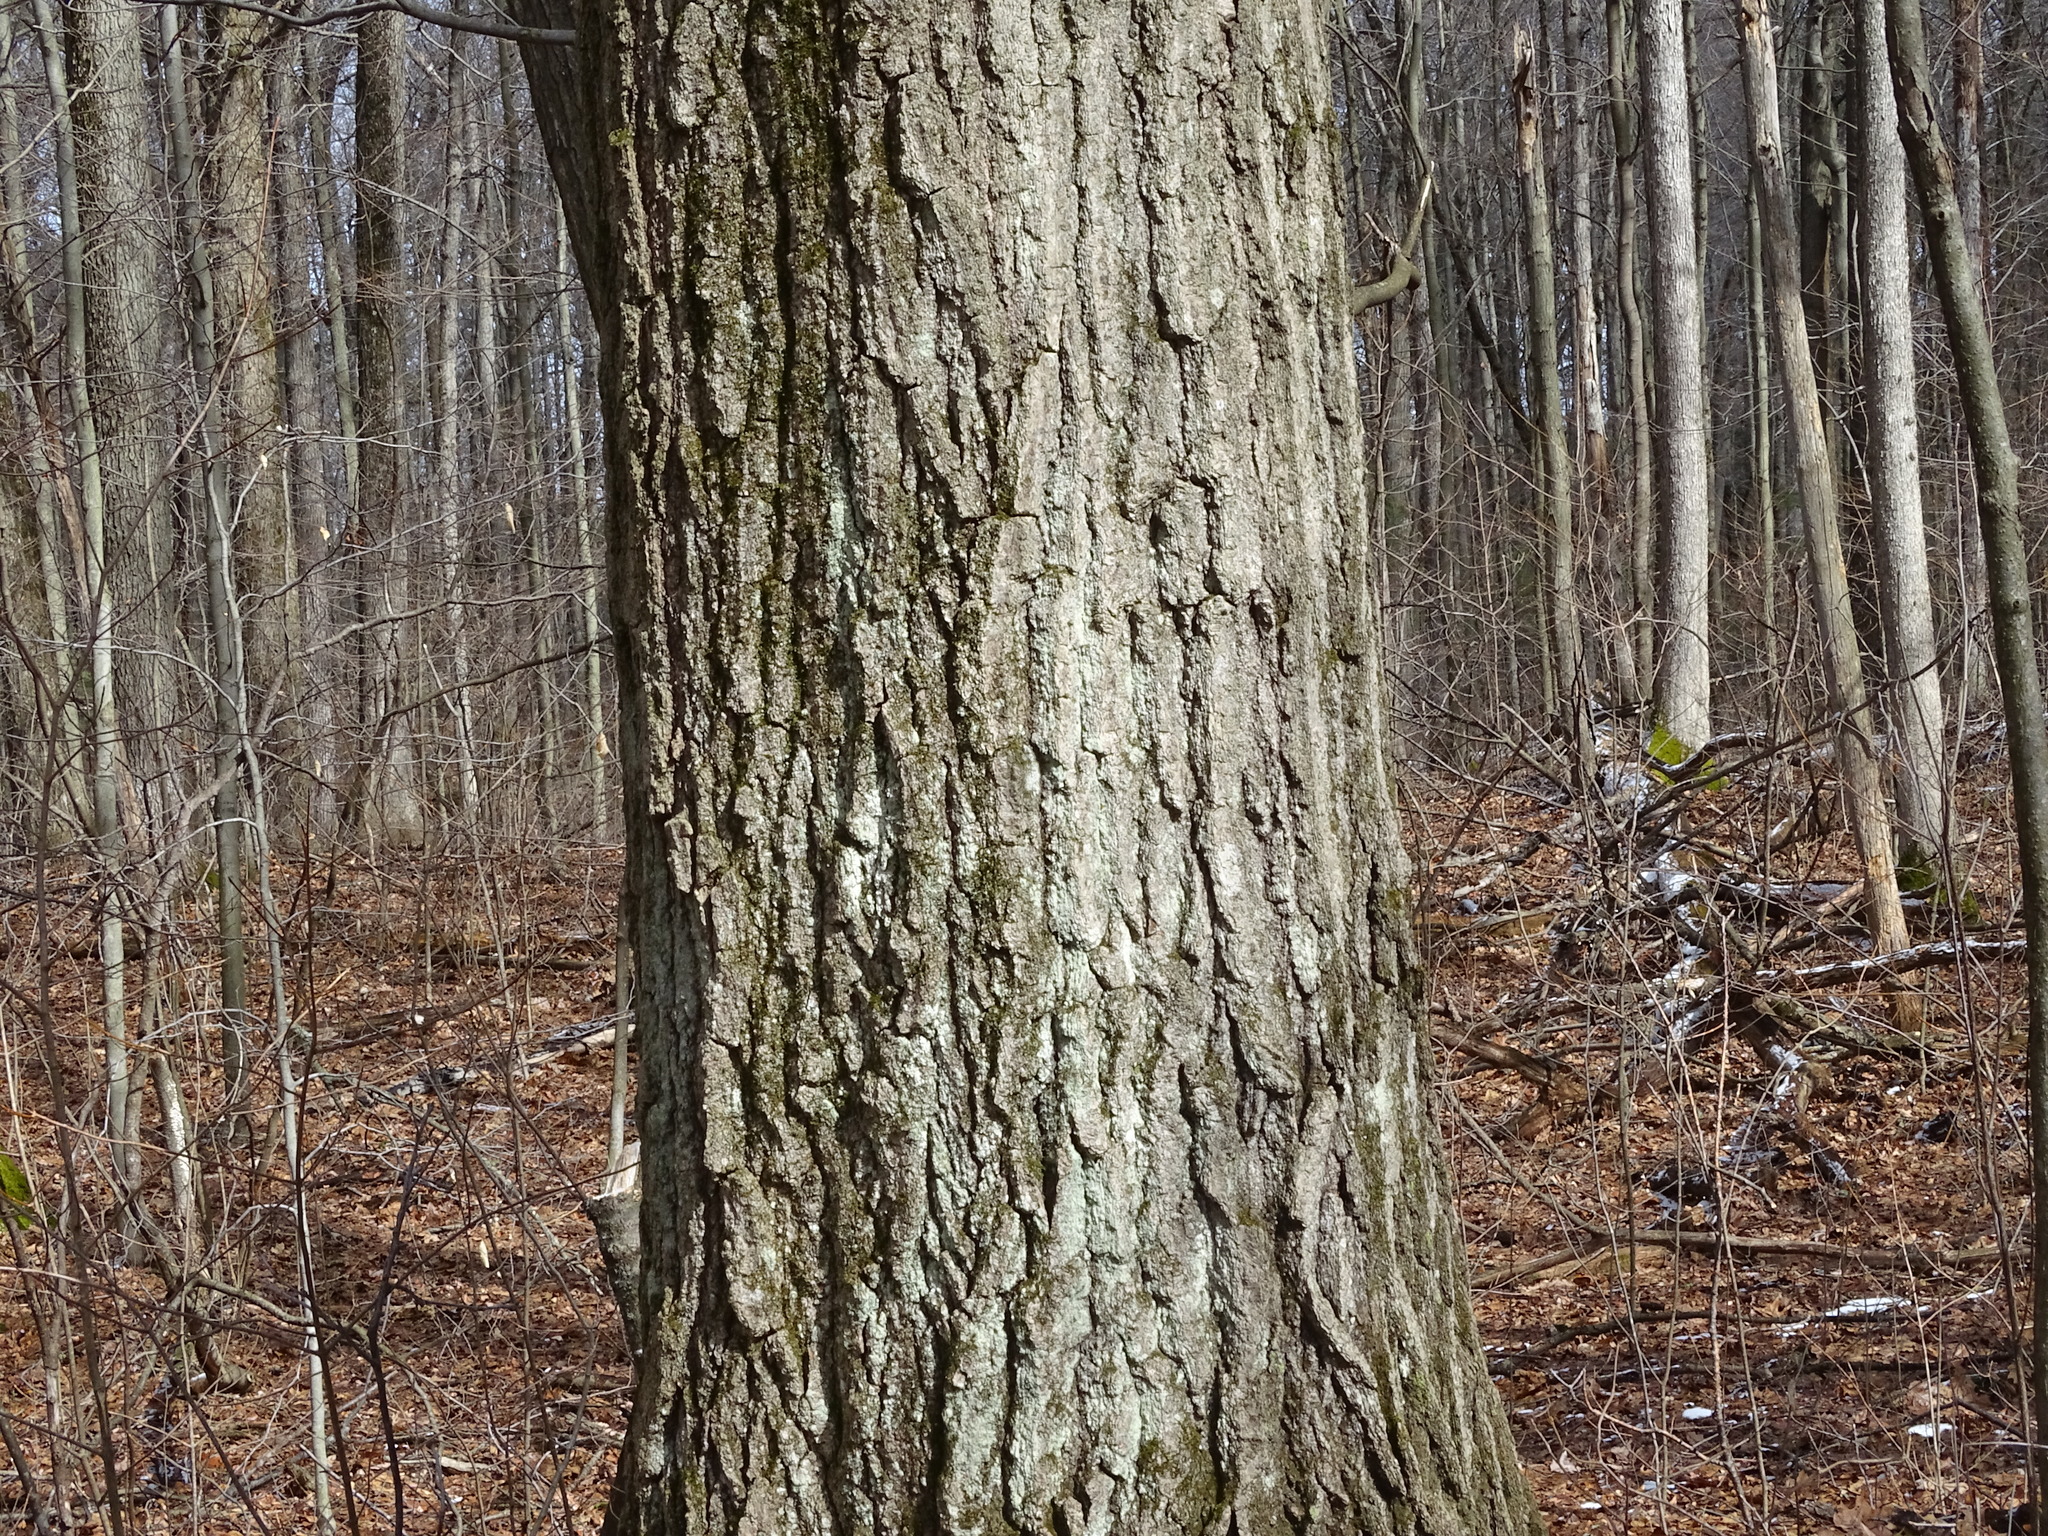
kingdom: Plantae
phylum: Tracheophyta
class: Magnoliopsida
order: Fagales
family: Fagaceae
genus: Quercus
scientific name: Quercus rubra
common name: Red oak
